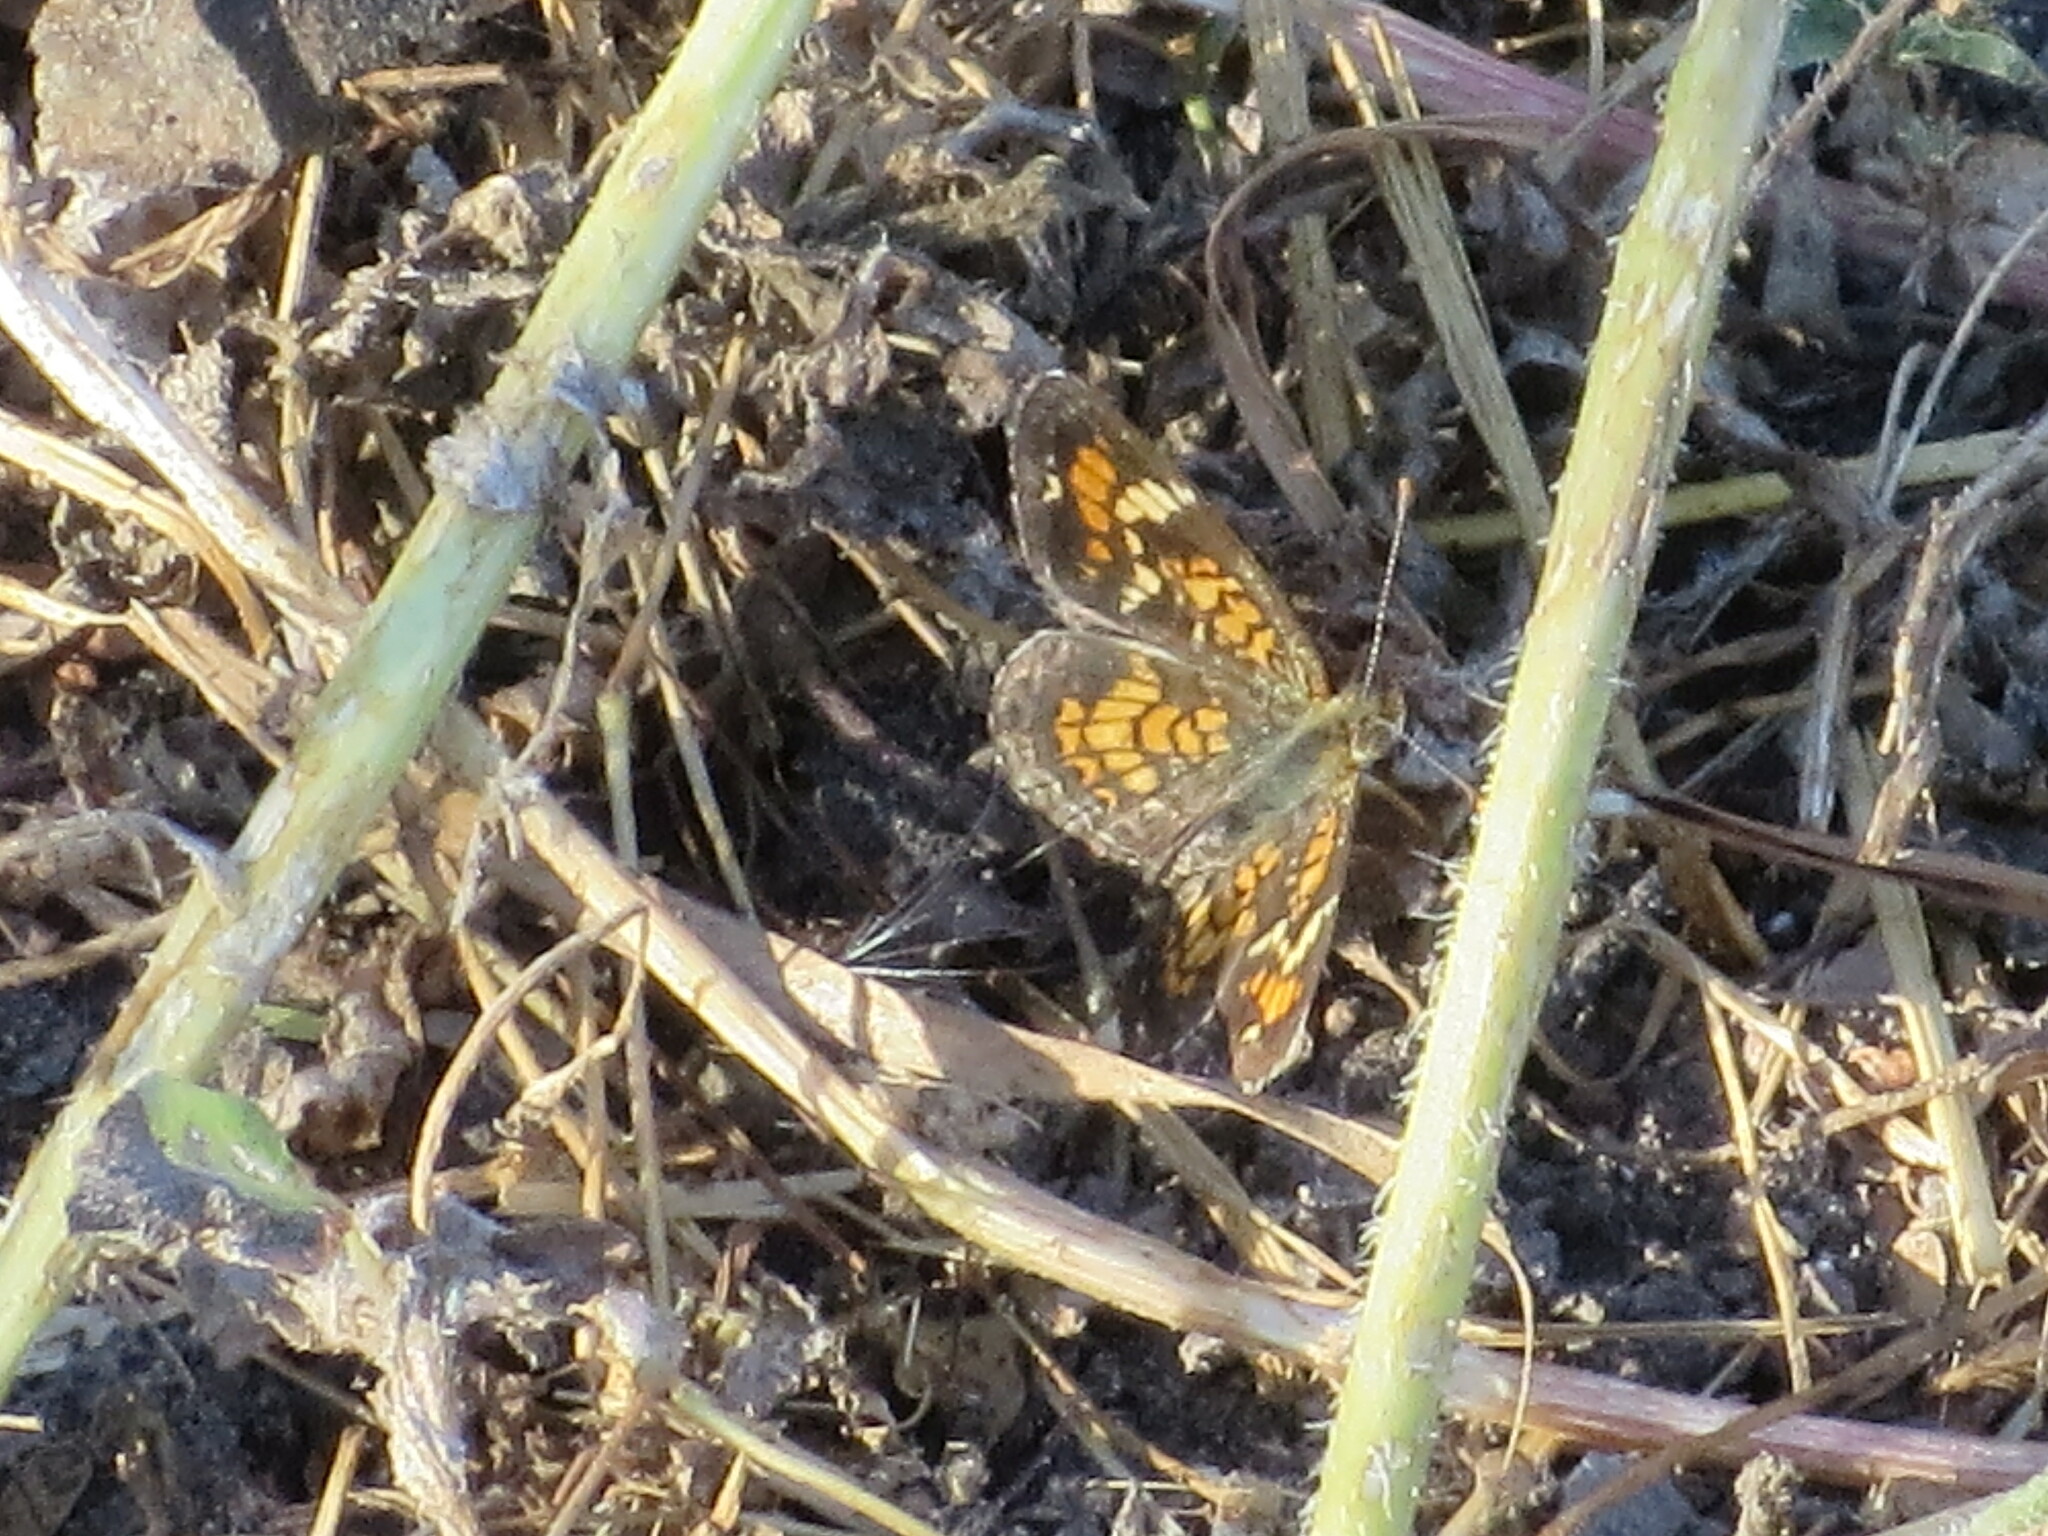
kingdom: Animalia
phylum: Arthropoda
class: Insecta
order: Lepidoptera
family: Nymphalidae
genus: Phyciodes
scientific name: Phyciodes phaon
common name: Phaon crescent
